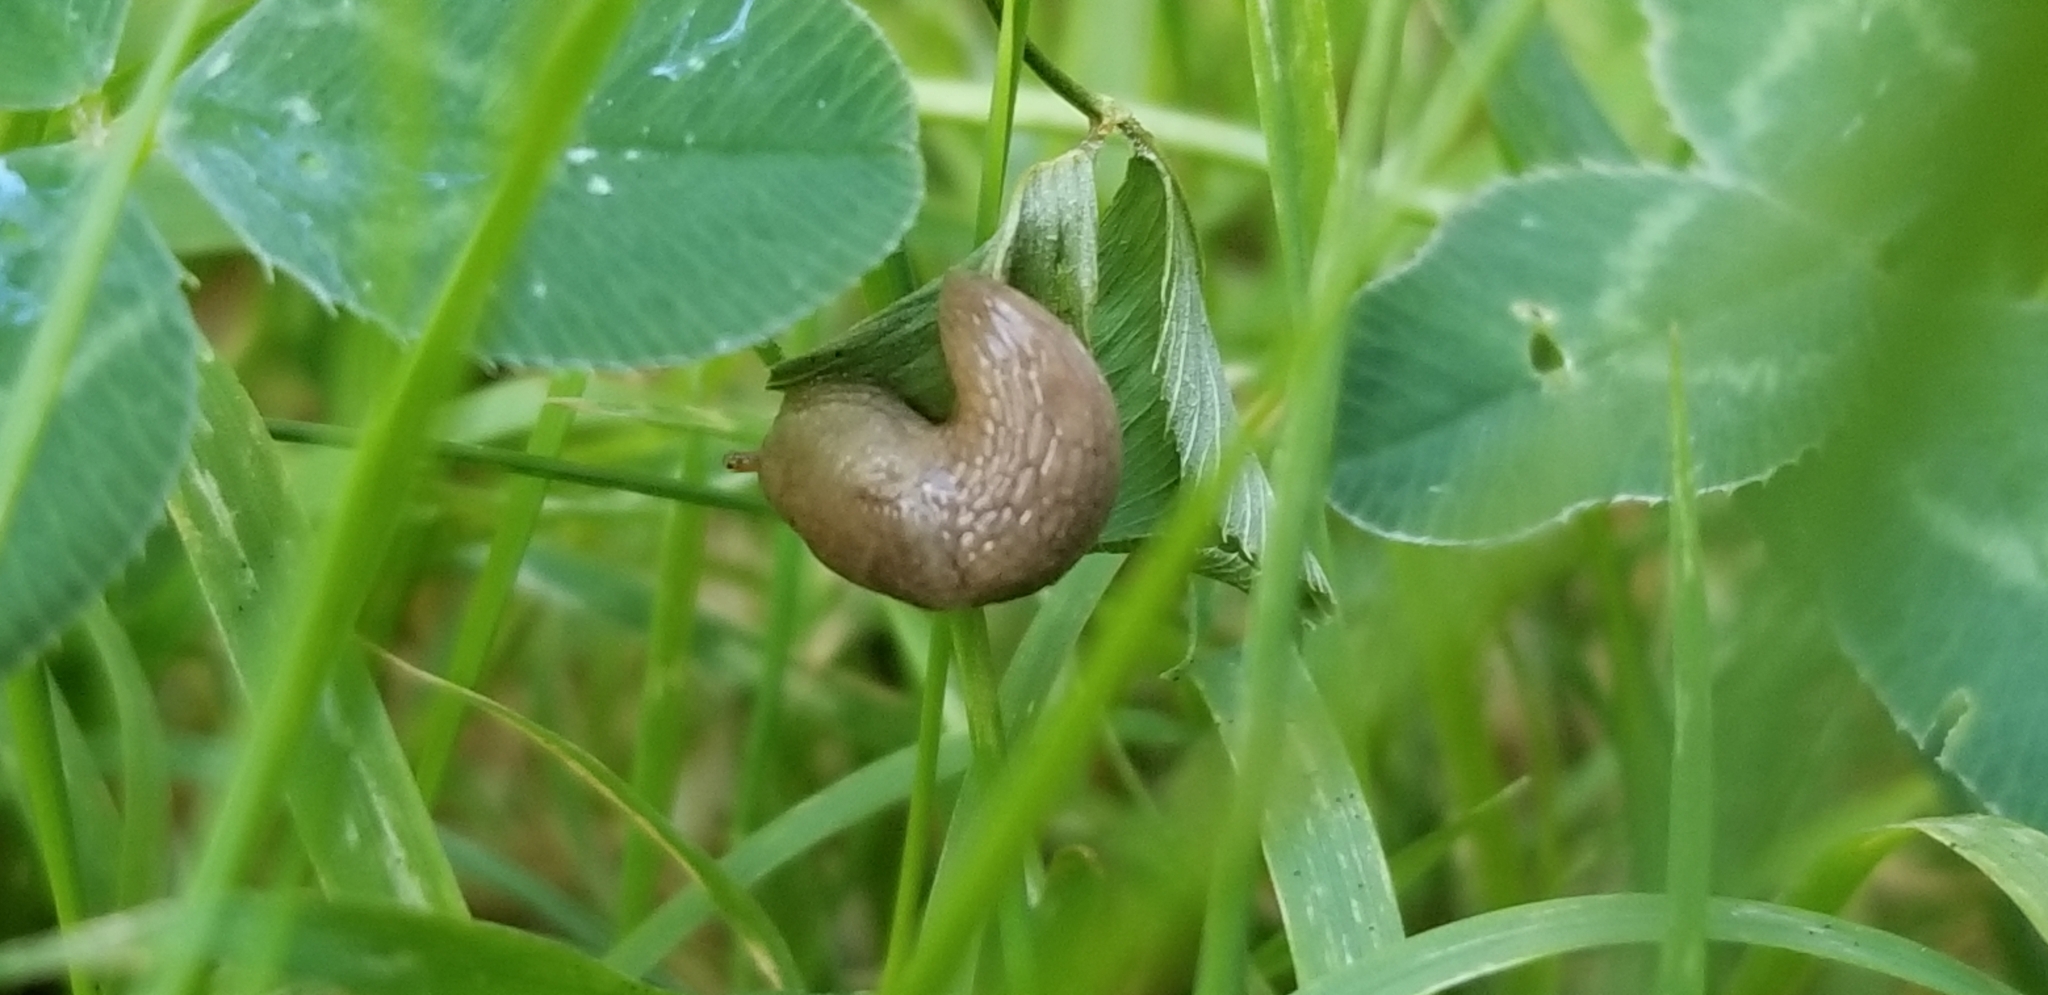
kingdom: Animalia
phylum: Mollusca
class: Gastropoda
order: Stylommatophora
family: Agriolimacidae
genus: Deroceras
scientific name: Deroceras reticulatum
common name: Gray field slug
